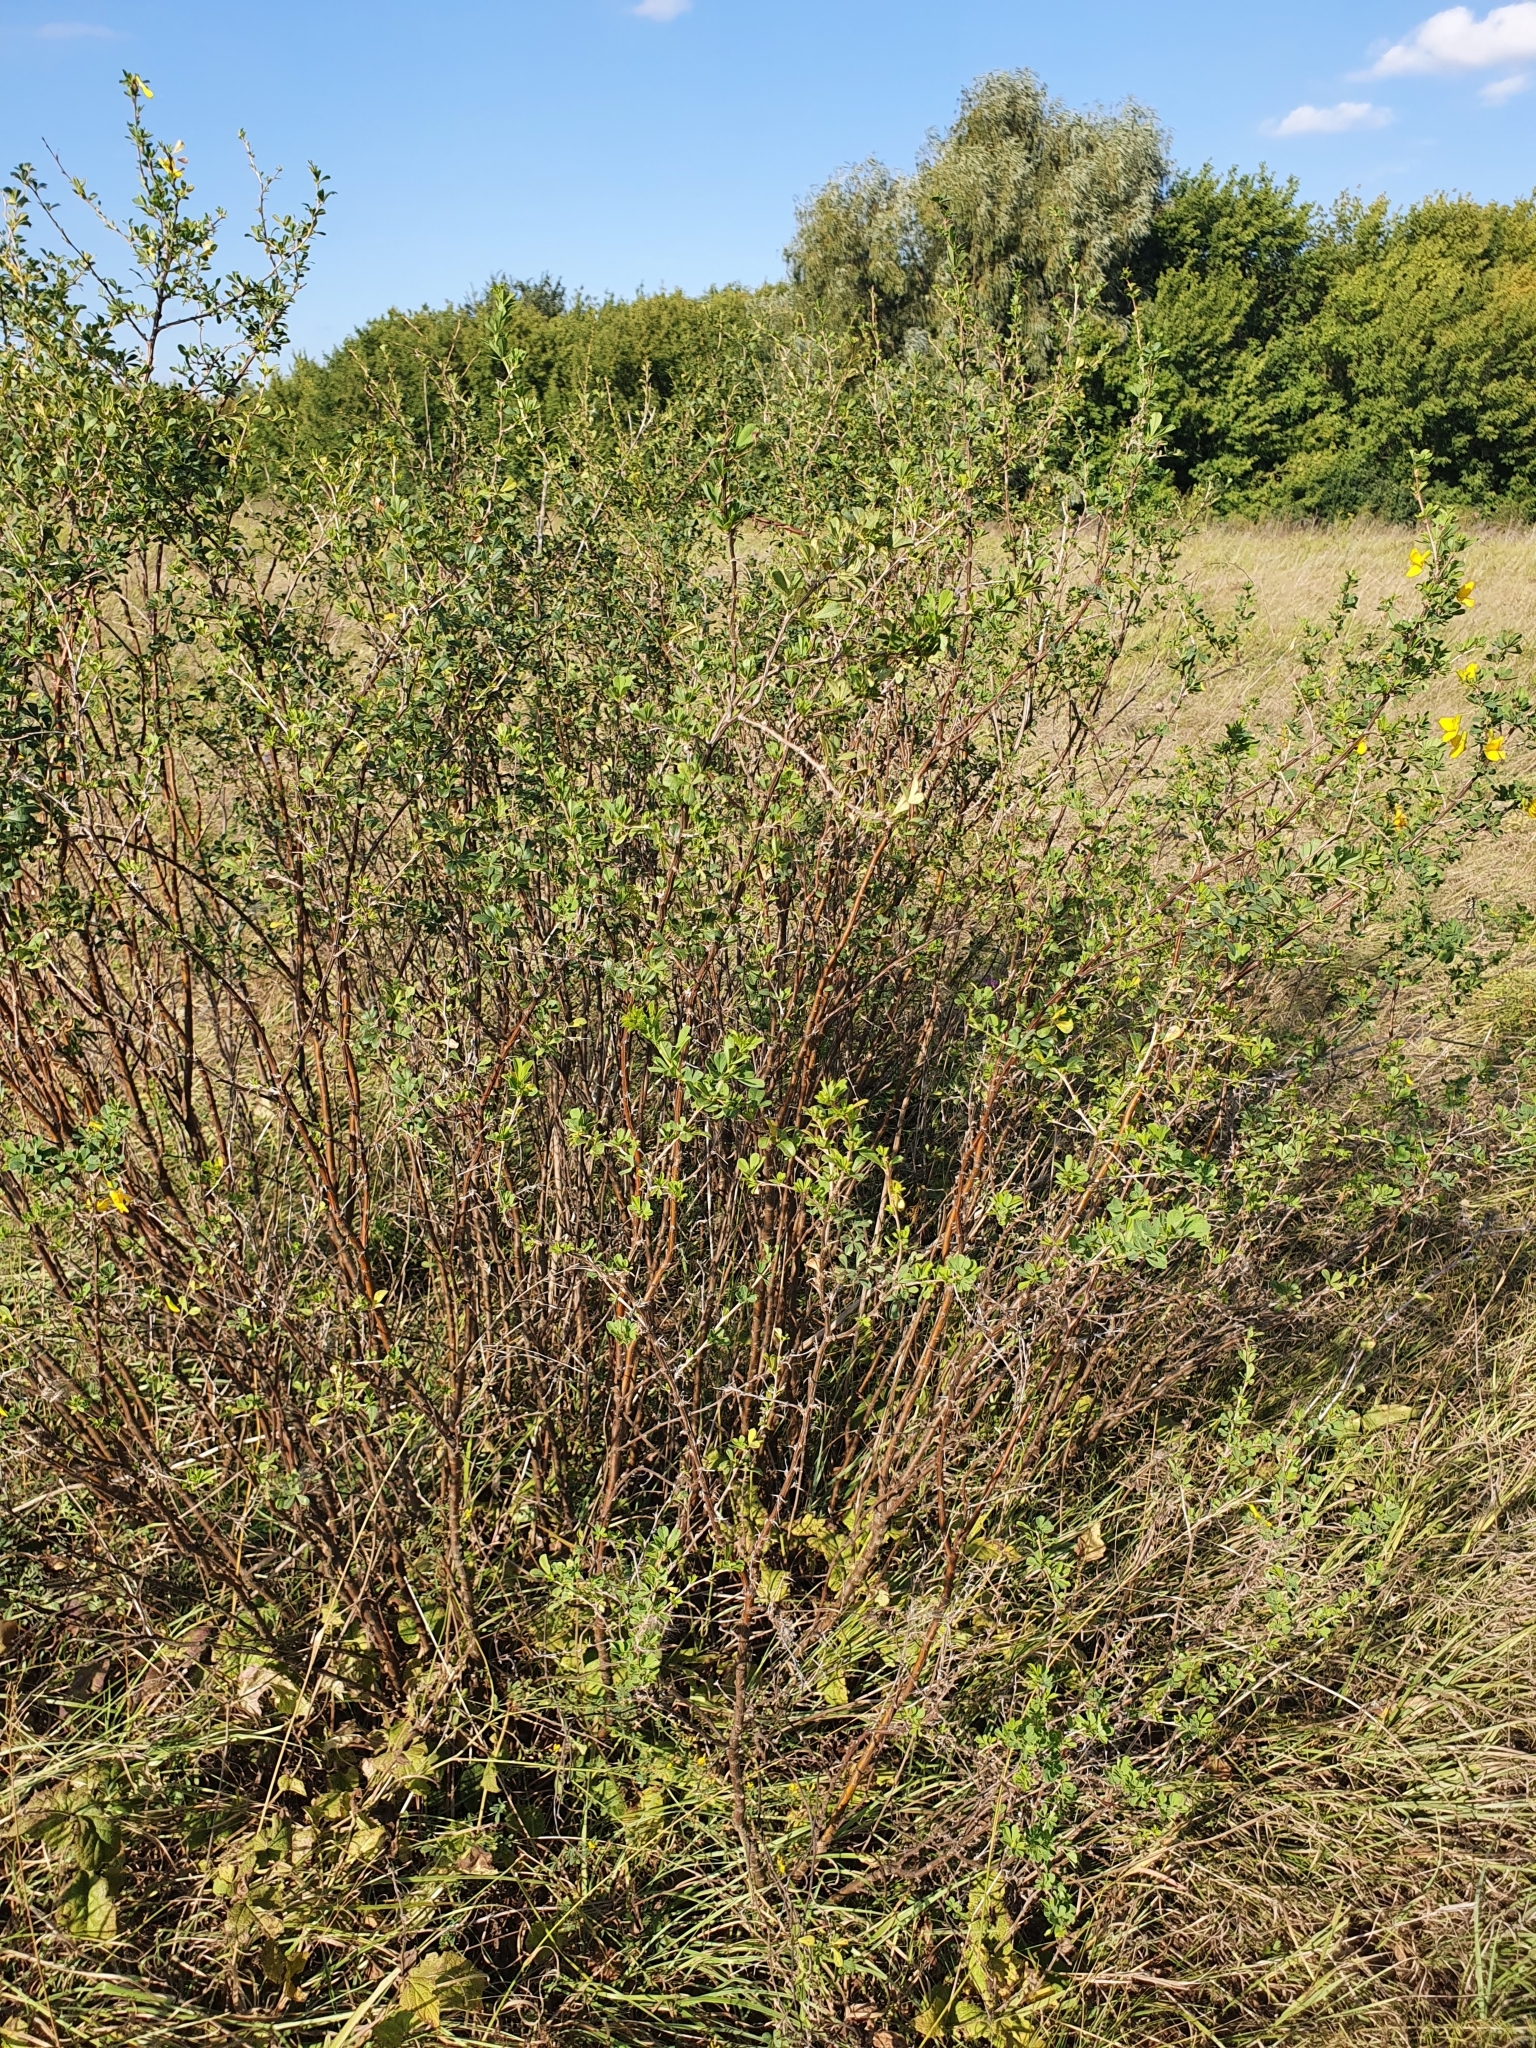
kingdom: Plantae
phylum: Tracheophyta
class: Magnoliopsida
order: Fabales
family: Fabaceae
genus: Caragana
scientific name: Caragana frutex
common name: Russian peashrub
